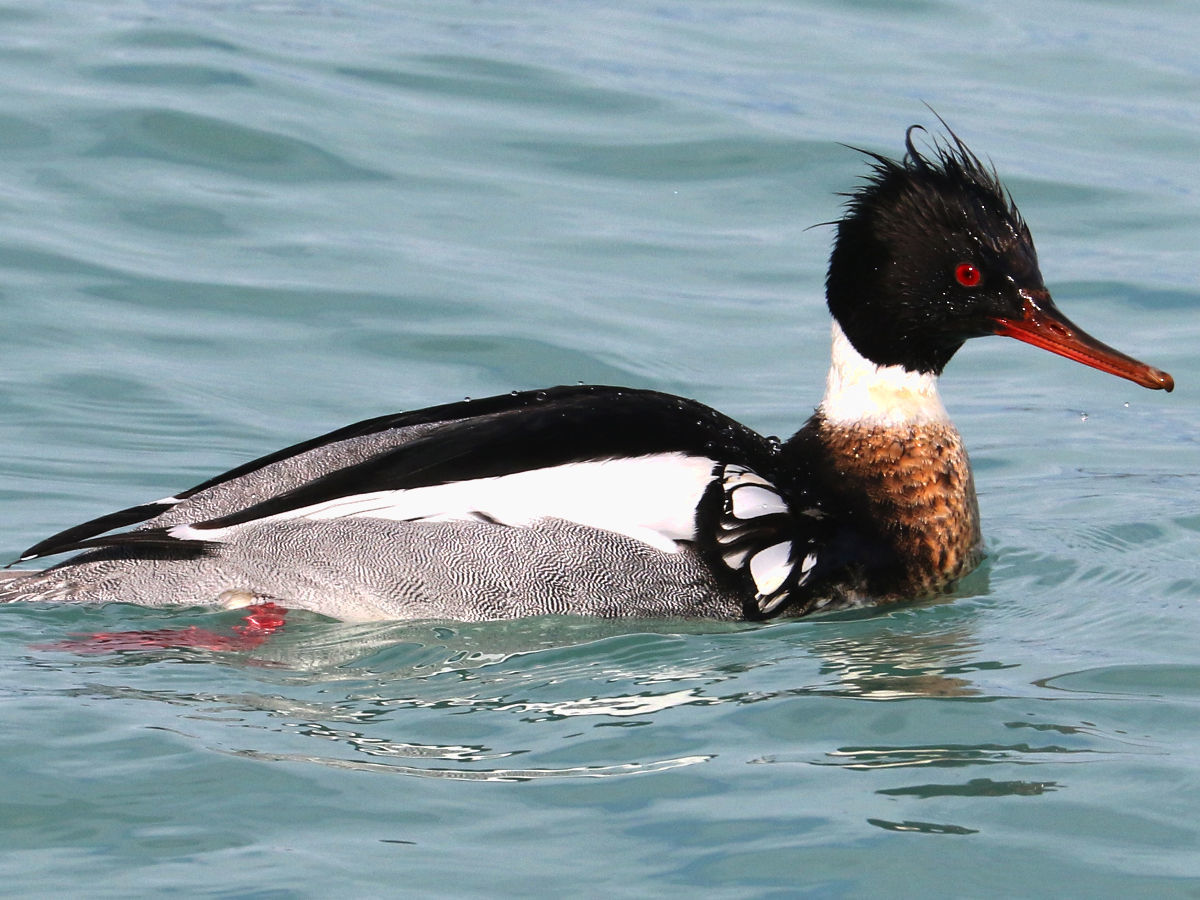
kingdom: Animalia
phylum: Chordata
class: Aves
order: Anseriformes
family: Anatidae
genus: Mergus
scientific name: Mergus serrator
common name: Red-breasted merganser
